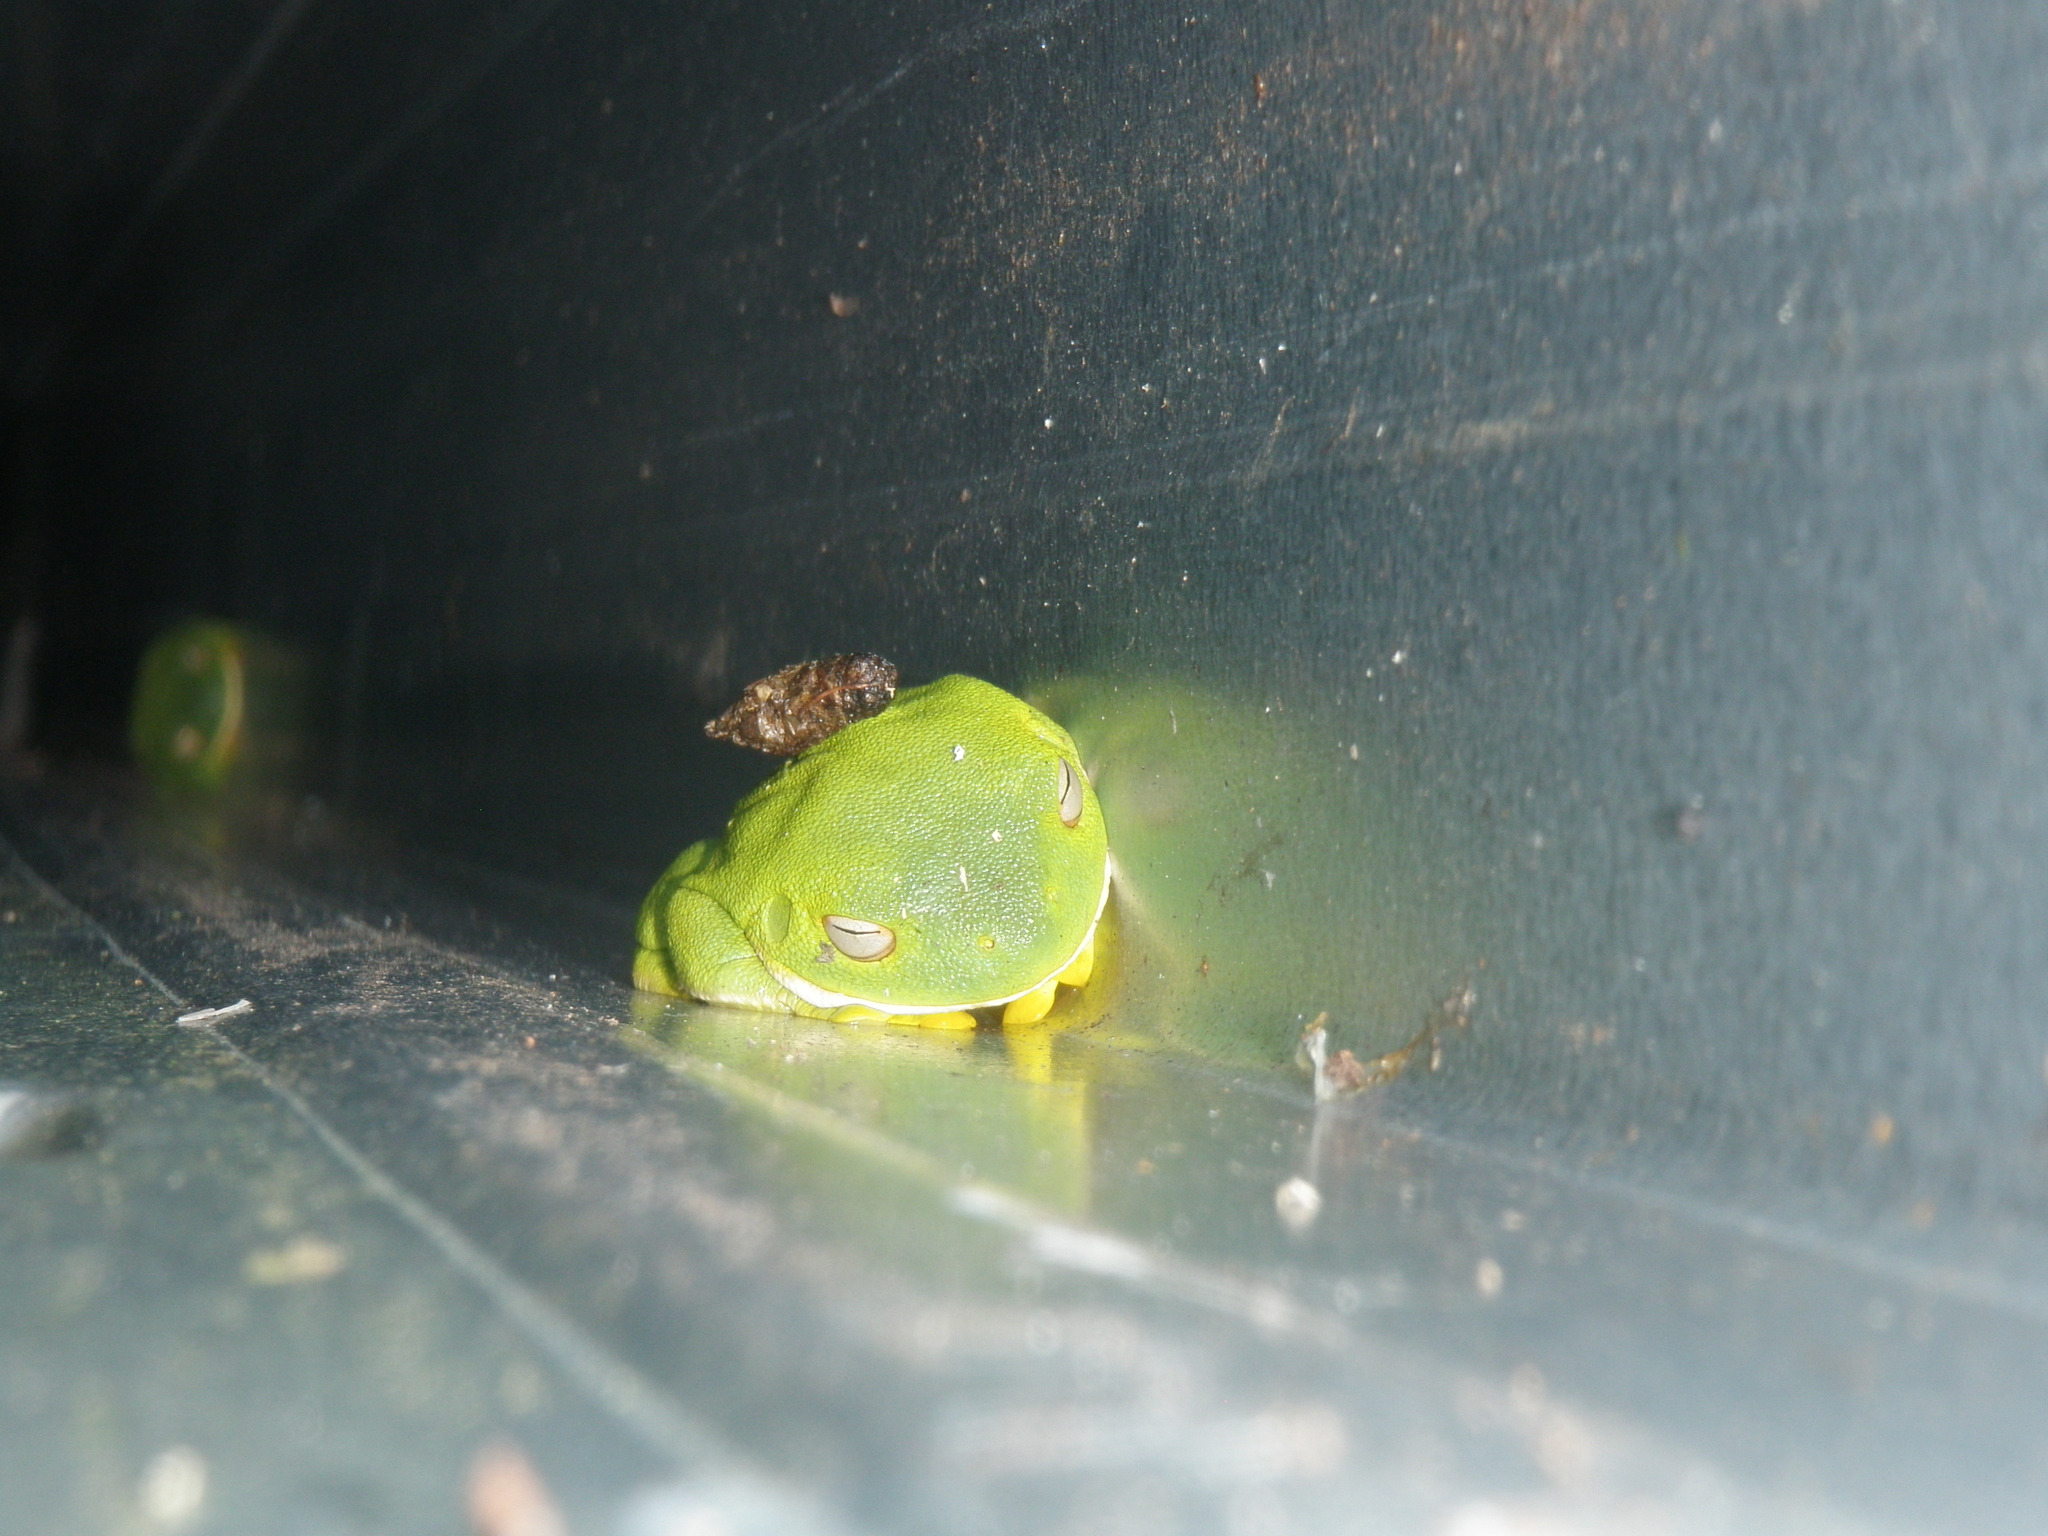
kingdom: Animalia
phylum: Chordata
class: Amphibia
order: Anura
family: Pelodryadidae
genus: Nyctimystes
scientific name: Nyctimystes infrafrenatus
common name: Australian giant treefrog
